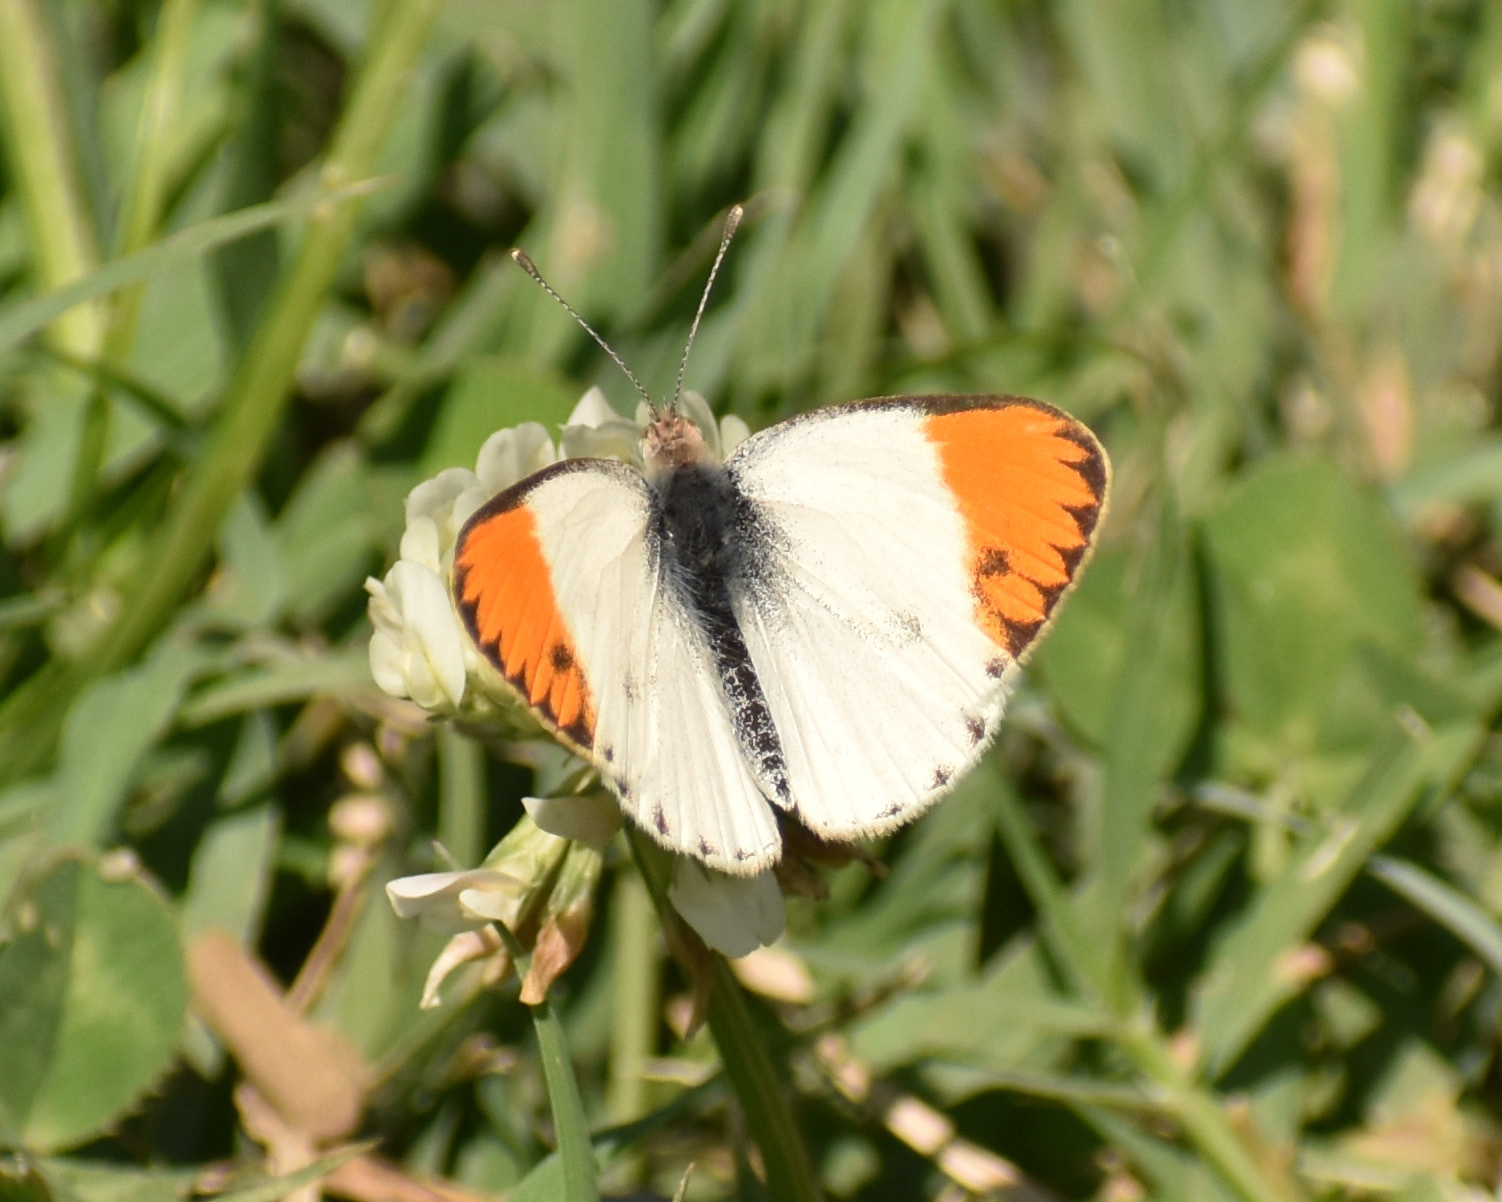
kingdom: Animalia
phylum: Arthropoda
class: Insecta
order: Lepidoptera
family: Pieridae
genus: Colotis
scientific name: Colotis evagore
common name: Desert orange-tip
